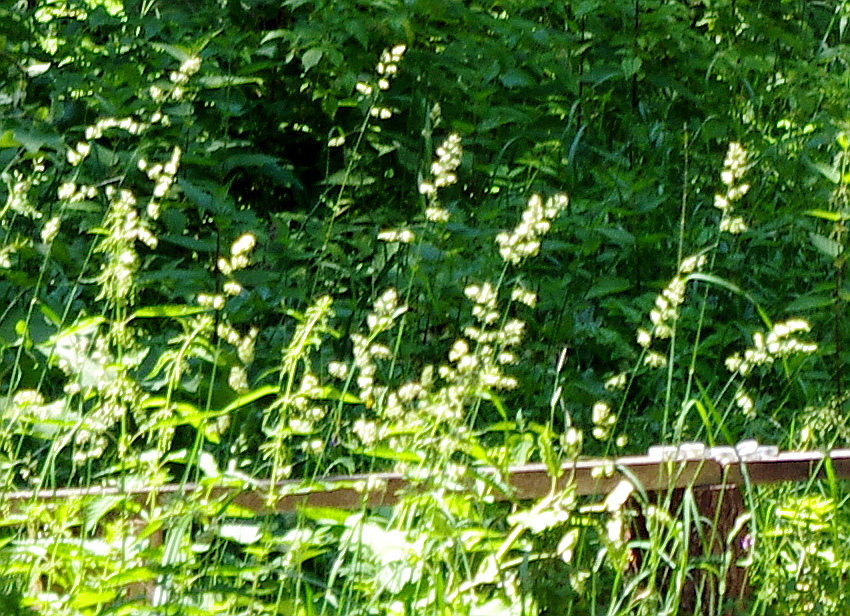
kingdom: Plantae
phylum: Tracheophyta
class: Liliopsida
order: Poales
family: Poaceae
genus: Dactylis
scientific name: Dactylis glomerata
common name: Orchardgrass
